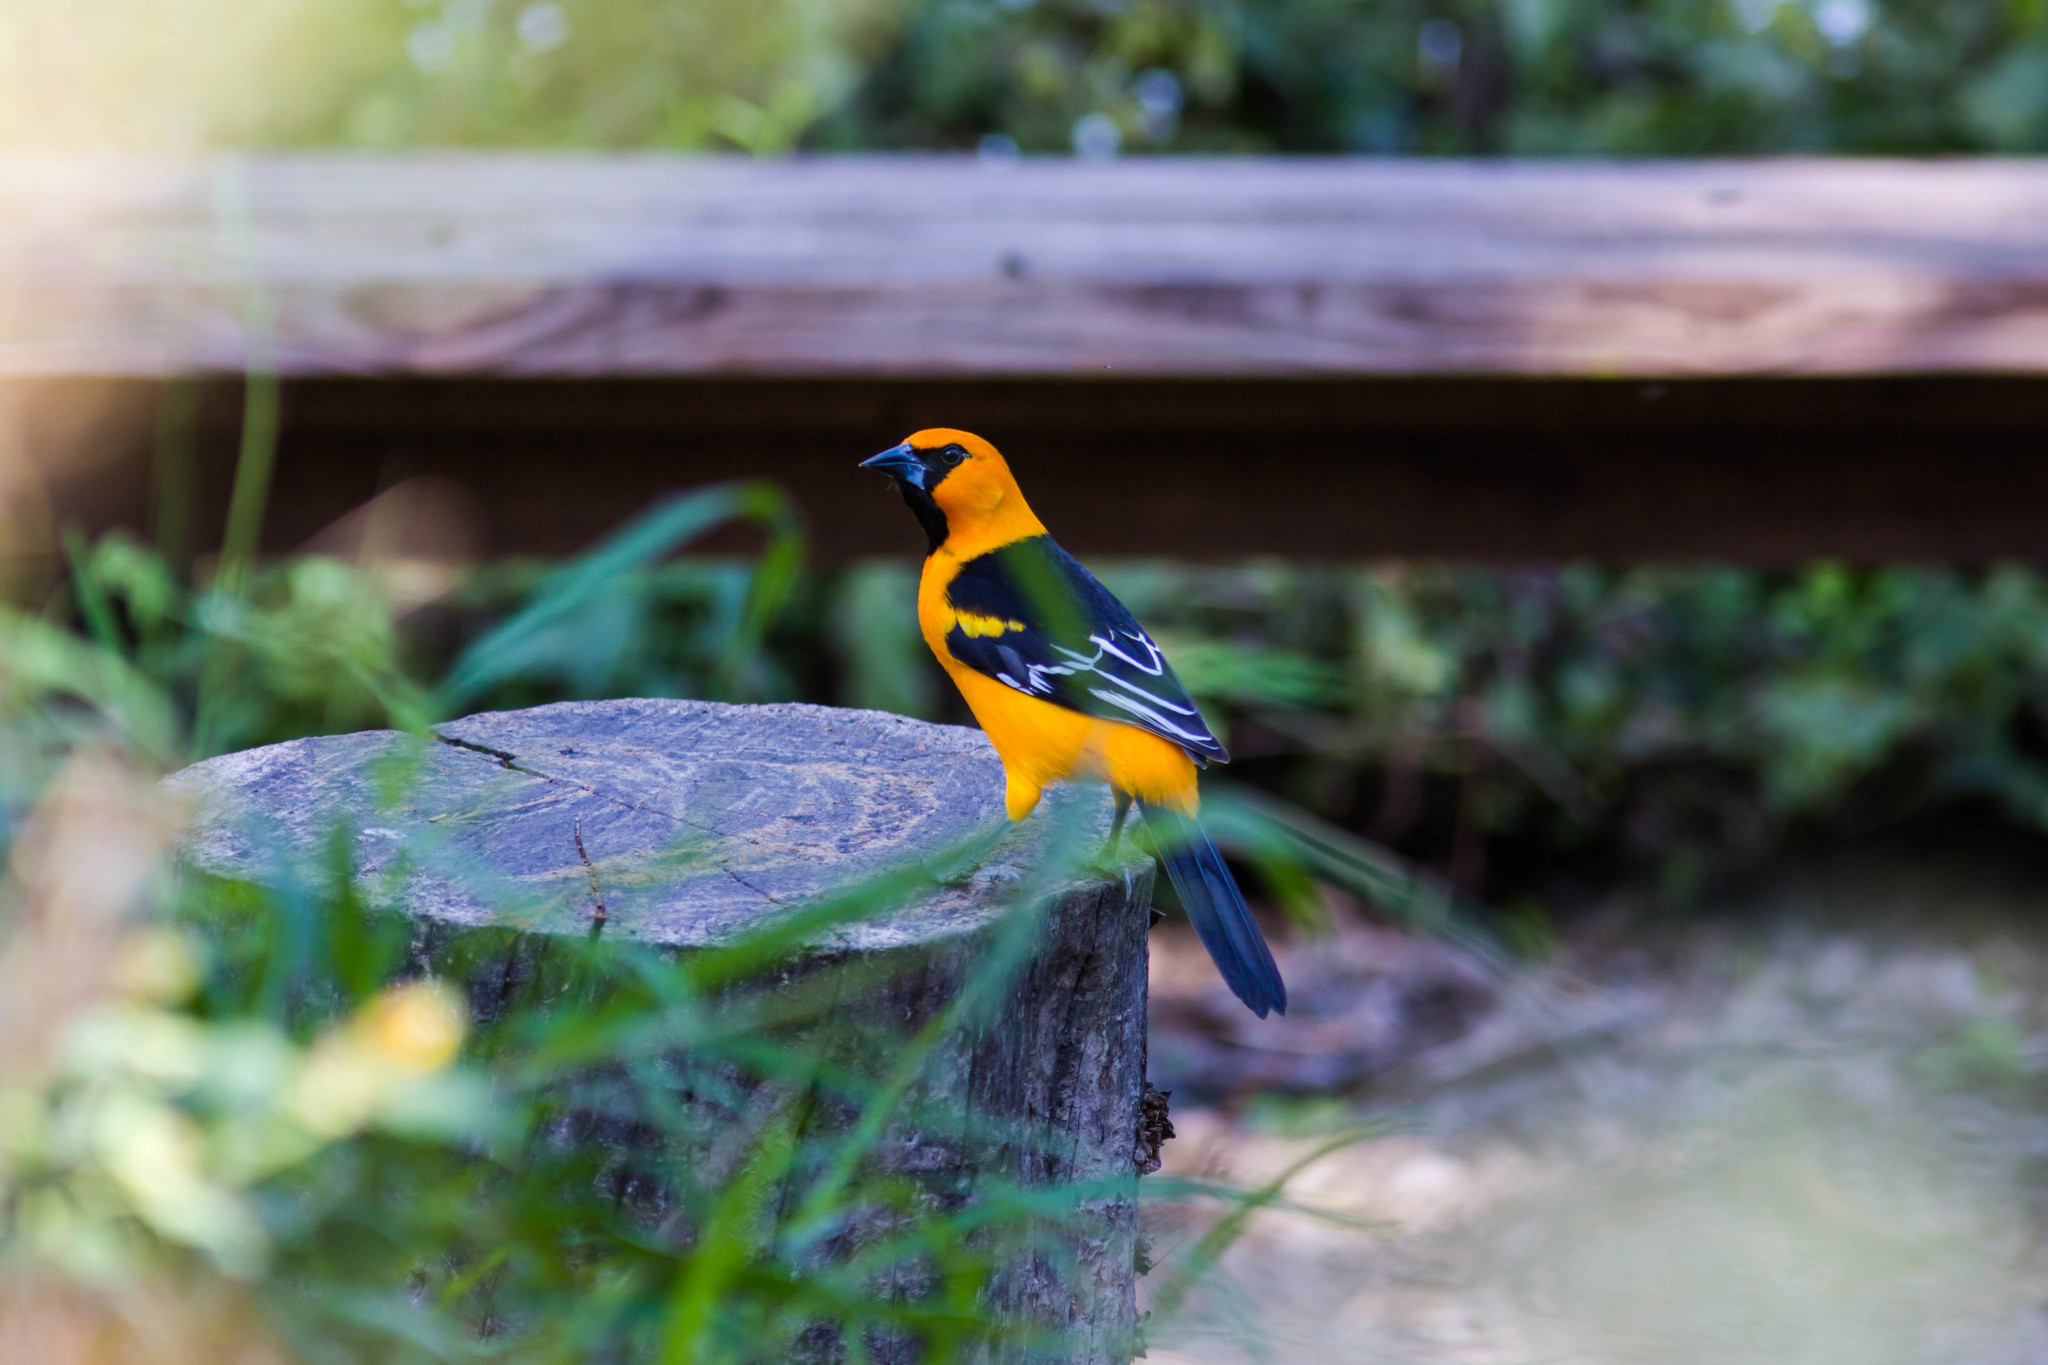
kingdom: Animalia
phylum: Chordata
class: Aves
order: Passeriformes
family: Icteridae
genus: Icterus
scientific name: Icterus gularis
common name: Altamira oriole
